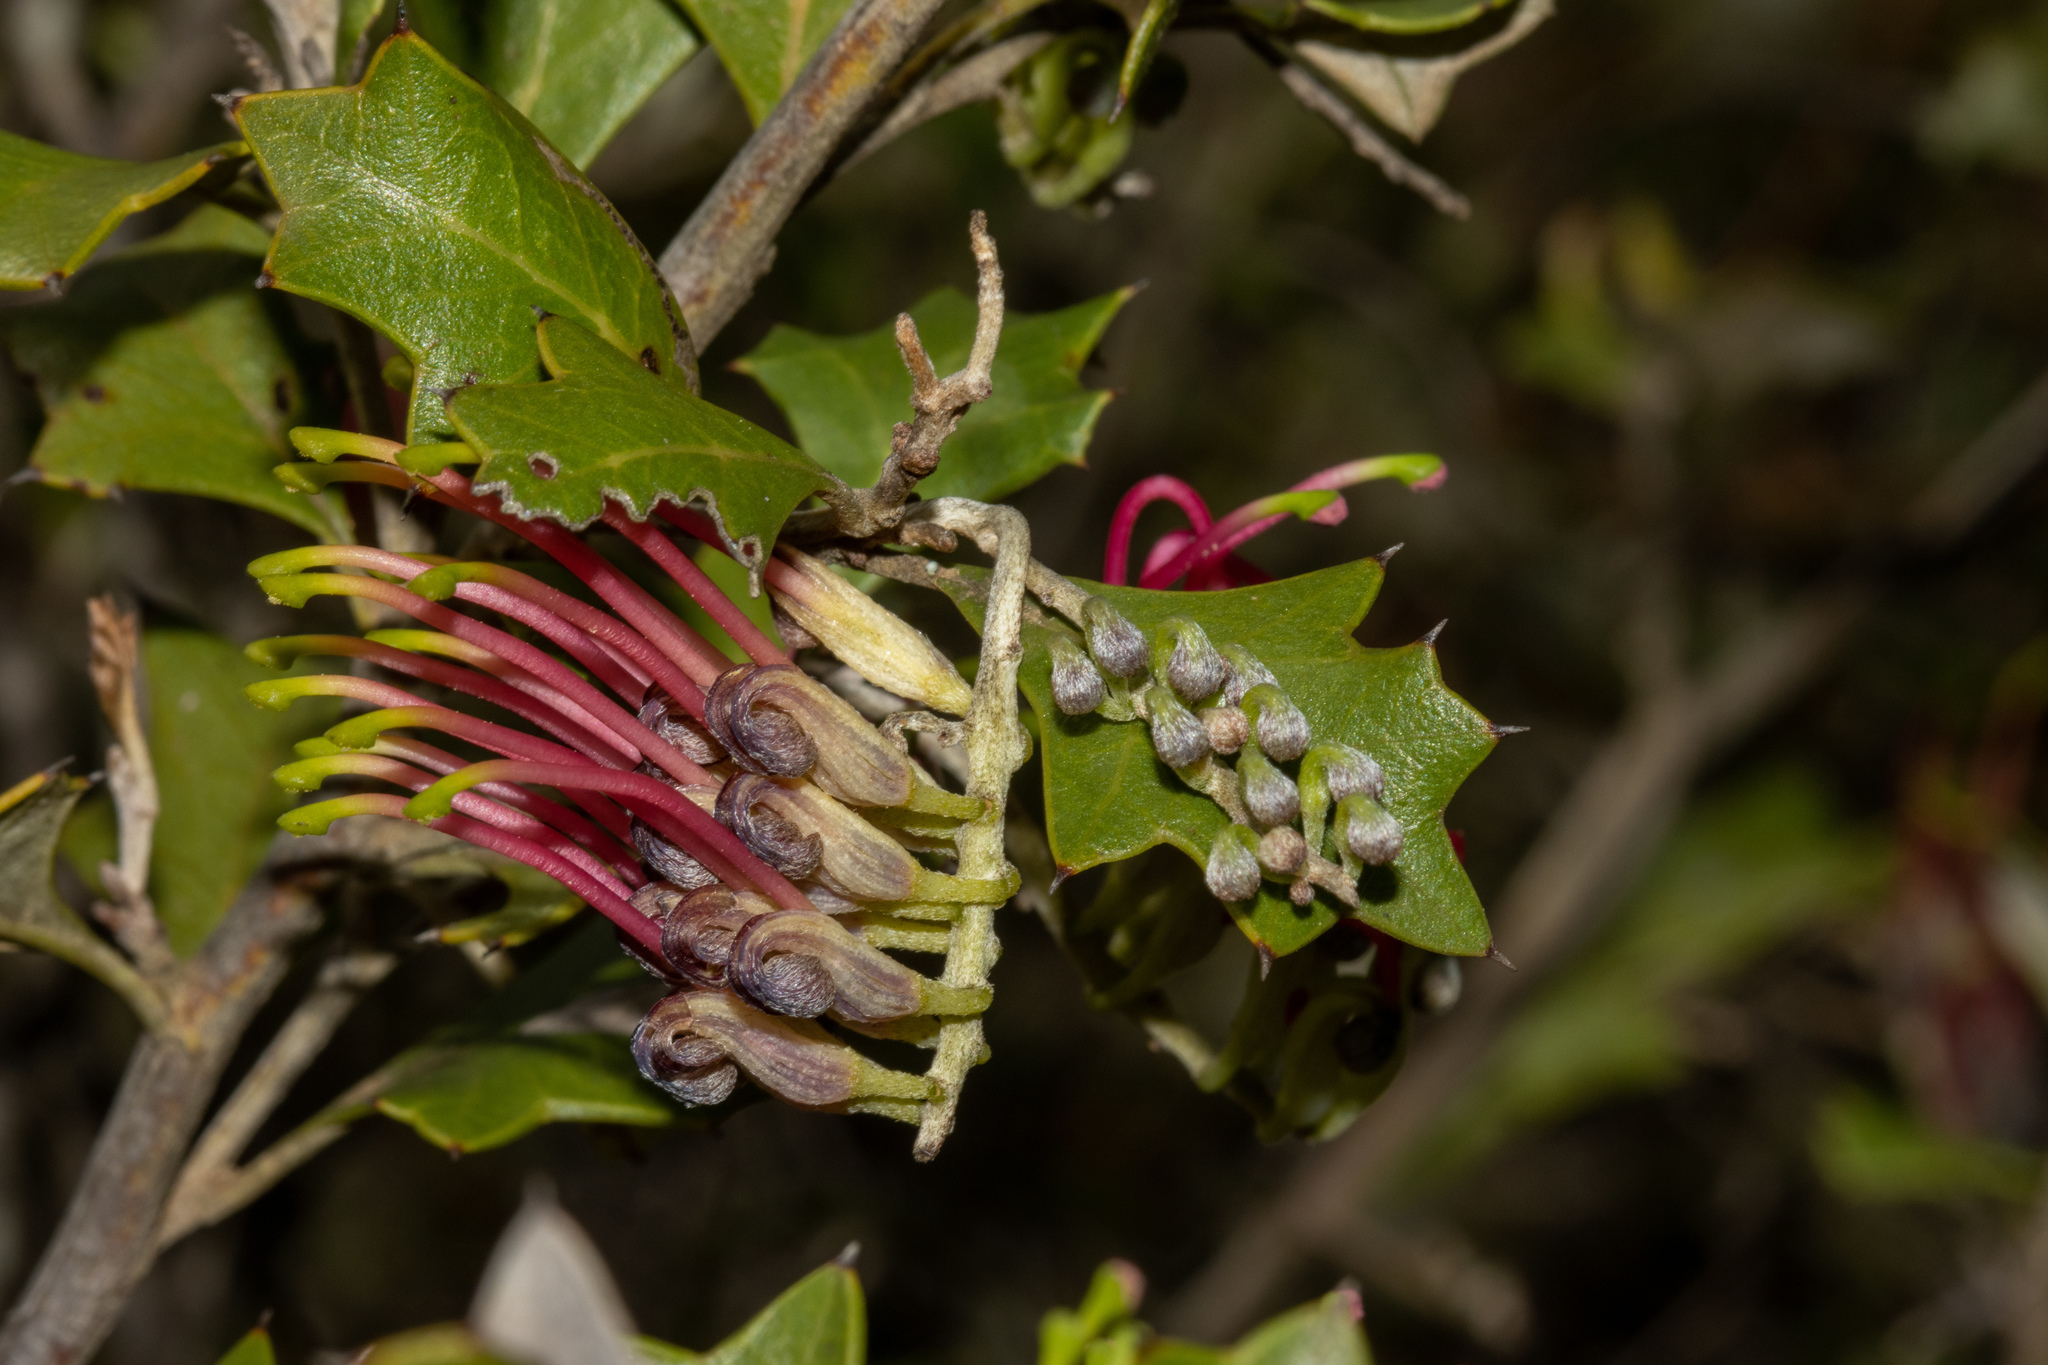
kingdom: Plantae
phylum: Tracheophyta
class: Magnoliopsida
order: Proteales
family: Proteaceae
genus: Grevillea
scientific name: Grevillea ilicifolia
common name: Holly grevillea
